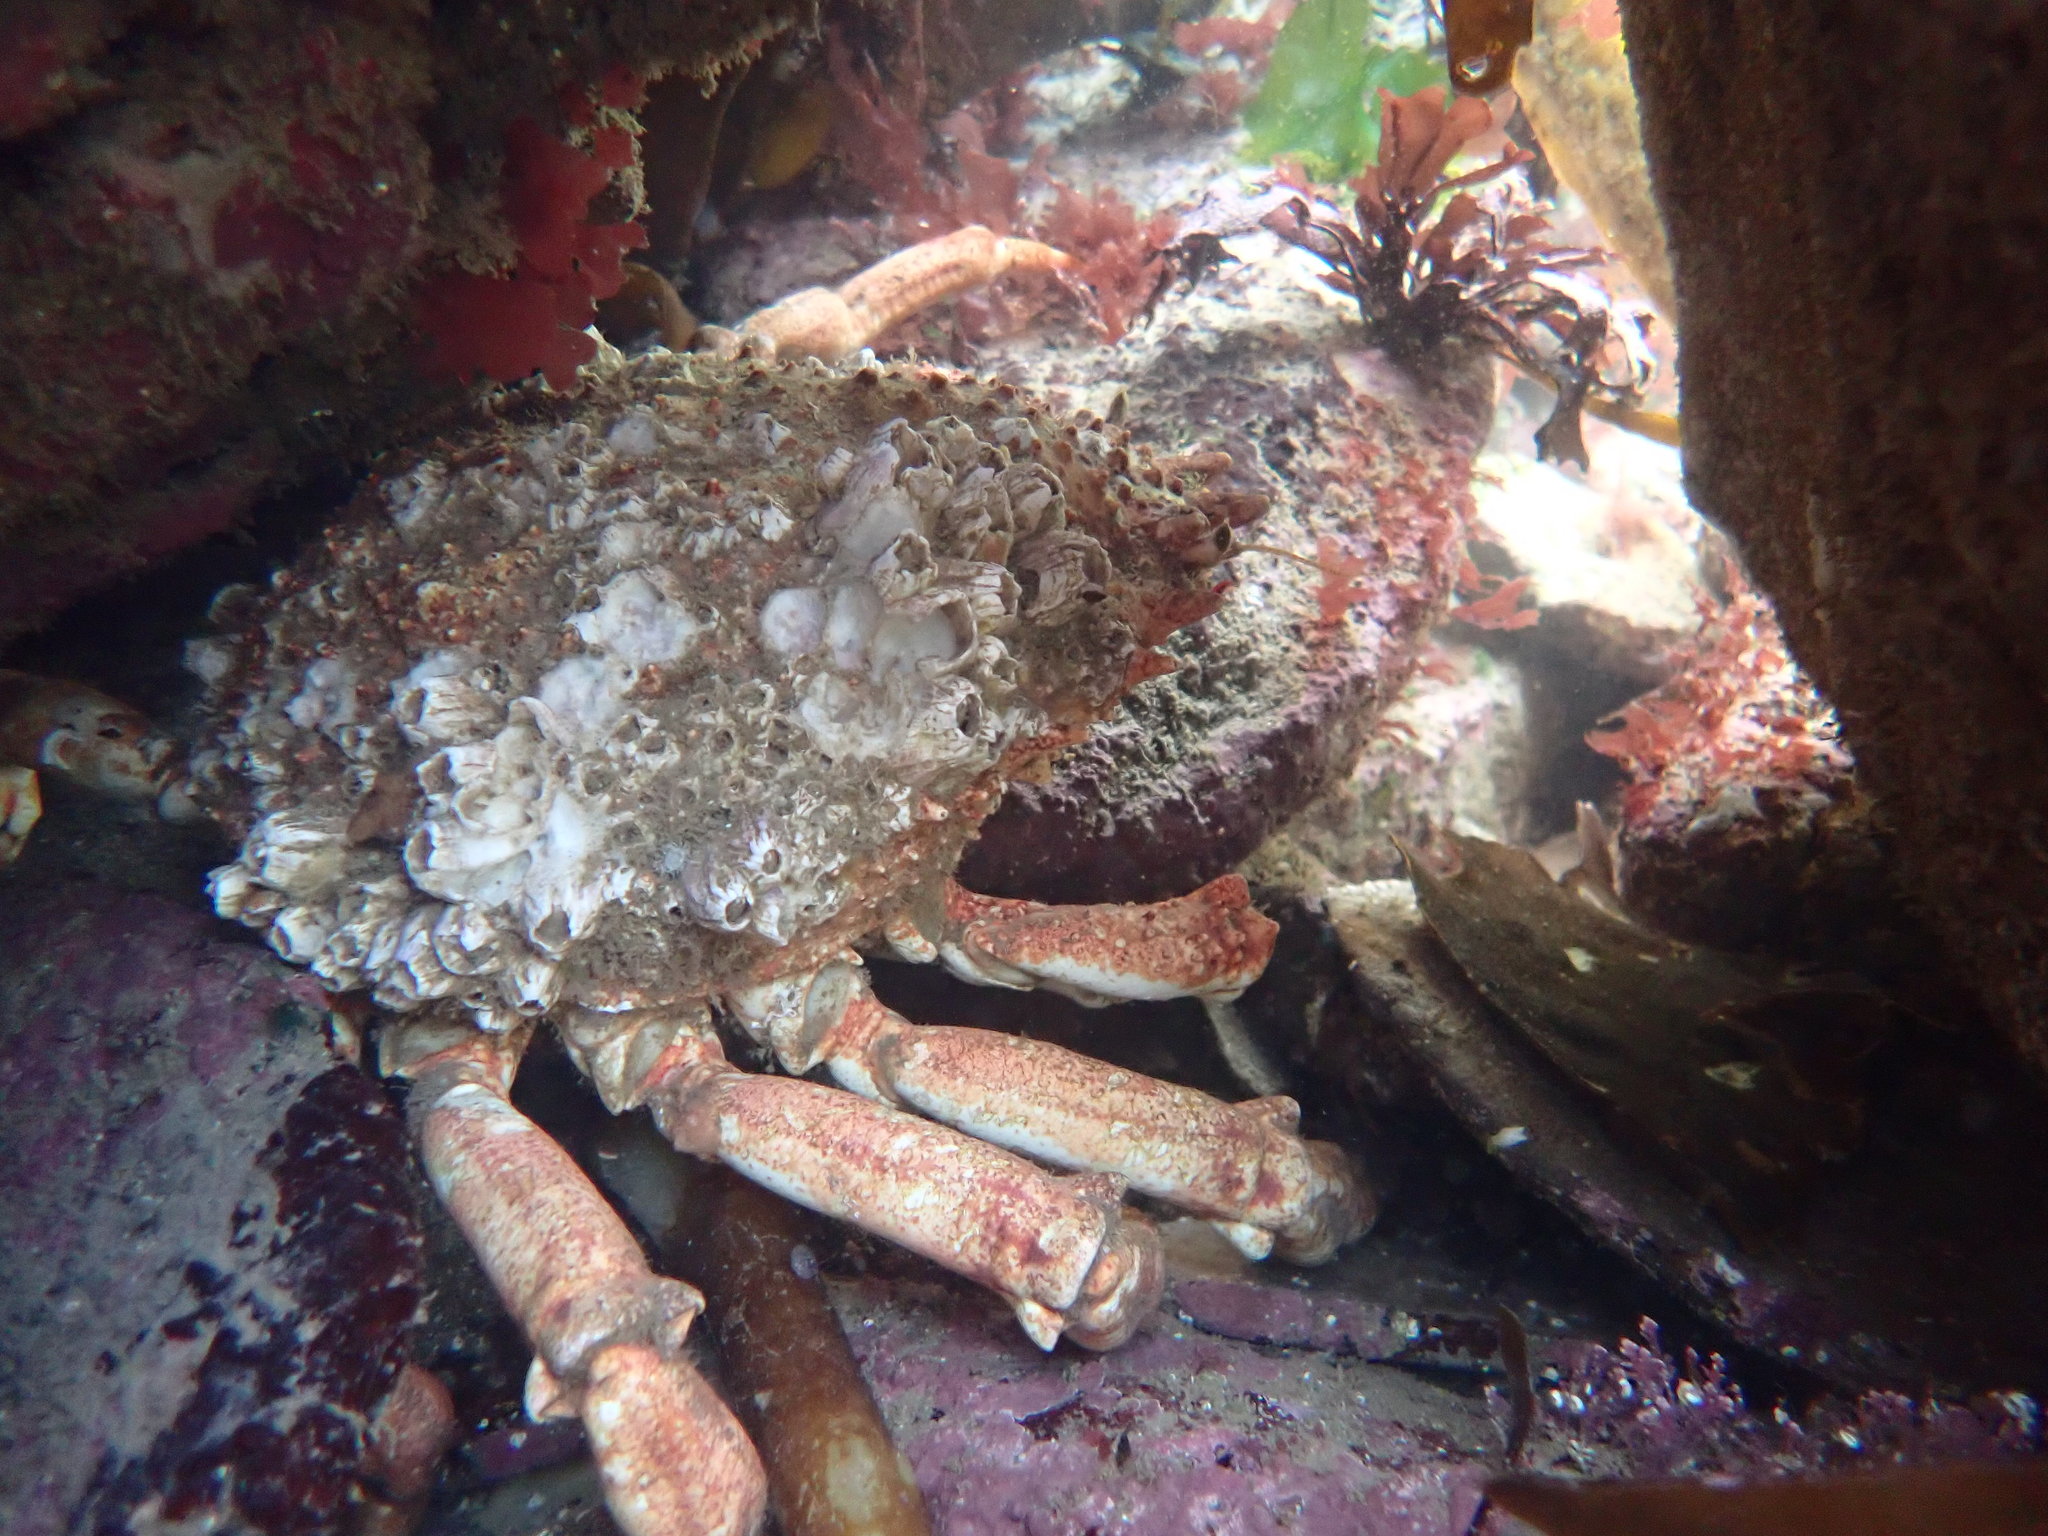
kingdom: Animalia
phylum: Arthropoda
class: Malacostraca
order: Decapoda
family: Majidae
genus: Maja
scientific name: Maja brachydactyla
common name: Common spider crab
